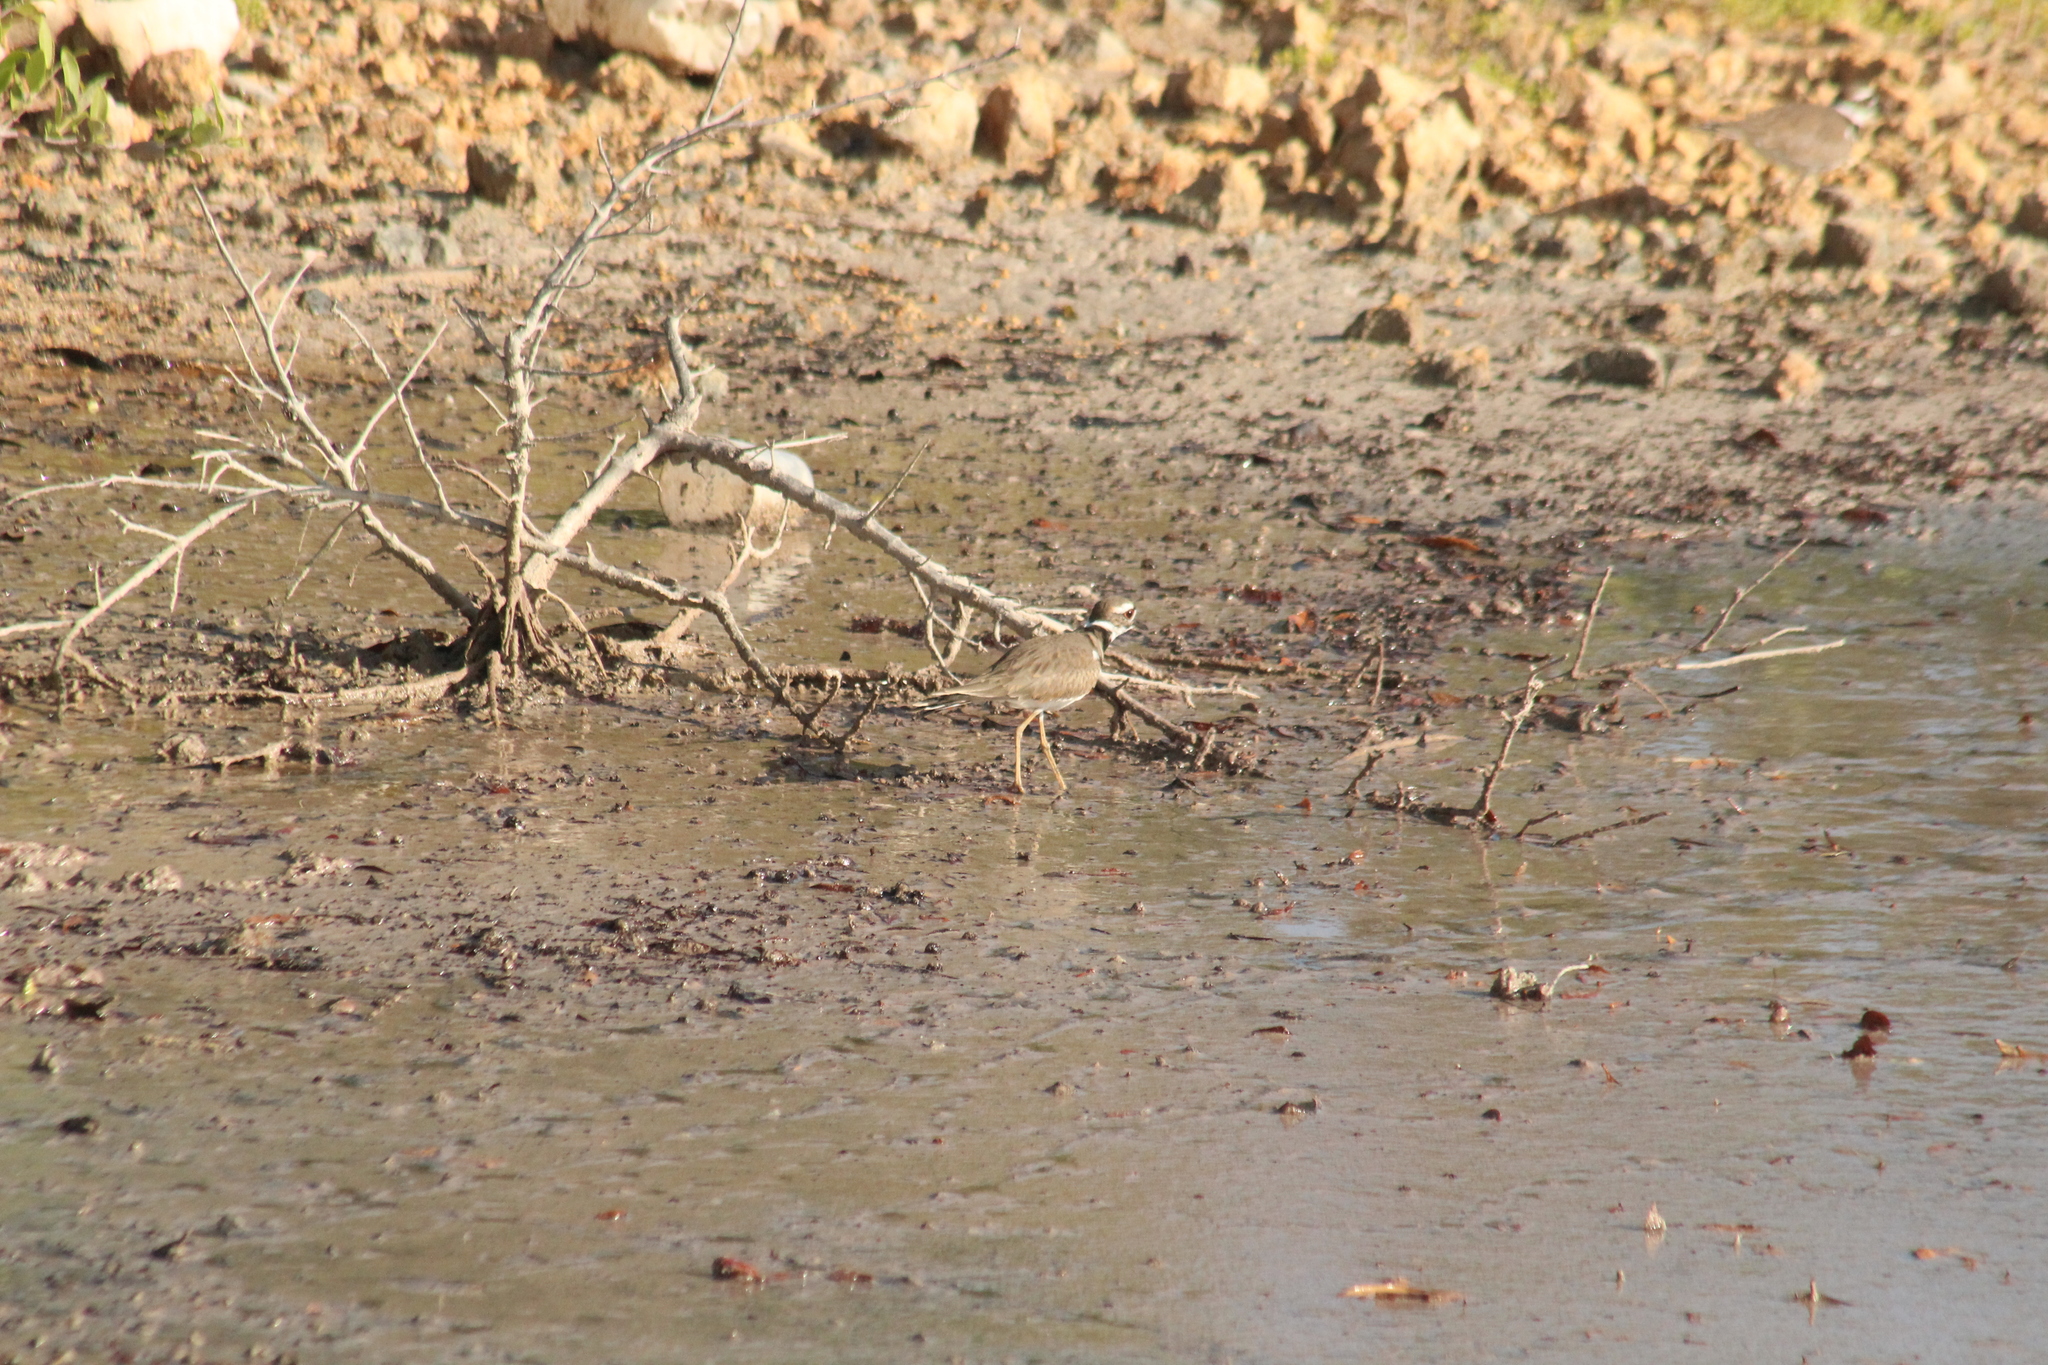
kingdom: Animalia
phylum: Chordata
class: Aves
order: Charadriiformes
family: Charadriidae
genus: Charadrius
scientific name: Charadrius vociferus
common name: Killdeer
